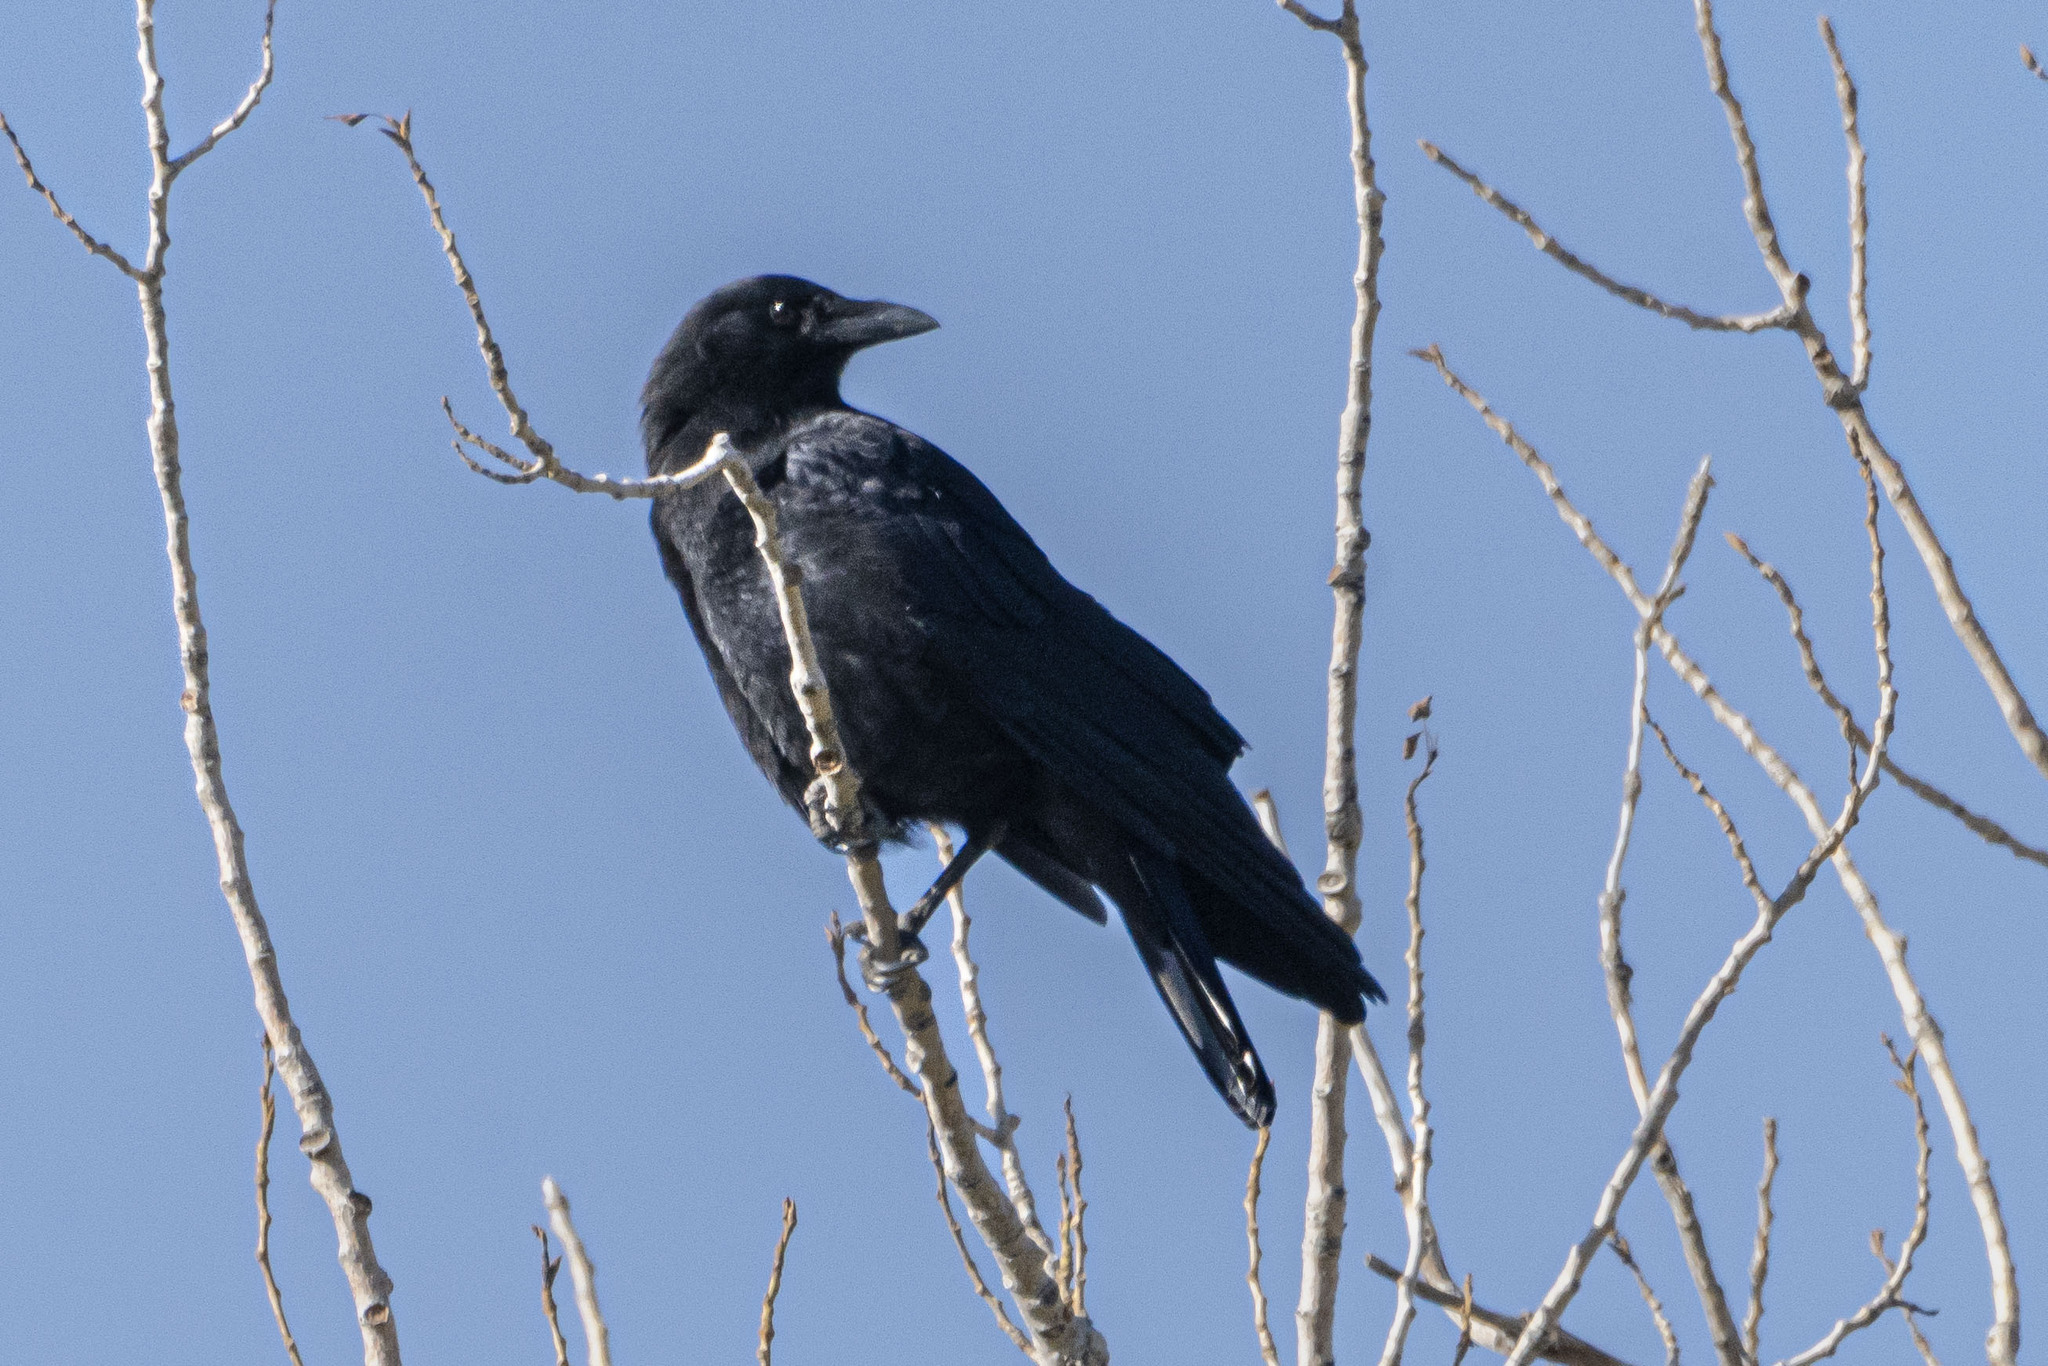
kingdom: Animalia
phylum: Chordata
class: Aves
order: Passeriformes
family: Corvidae
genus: Corvus
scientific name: Corvus brachyrhynchos
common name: American crow
